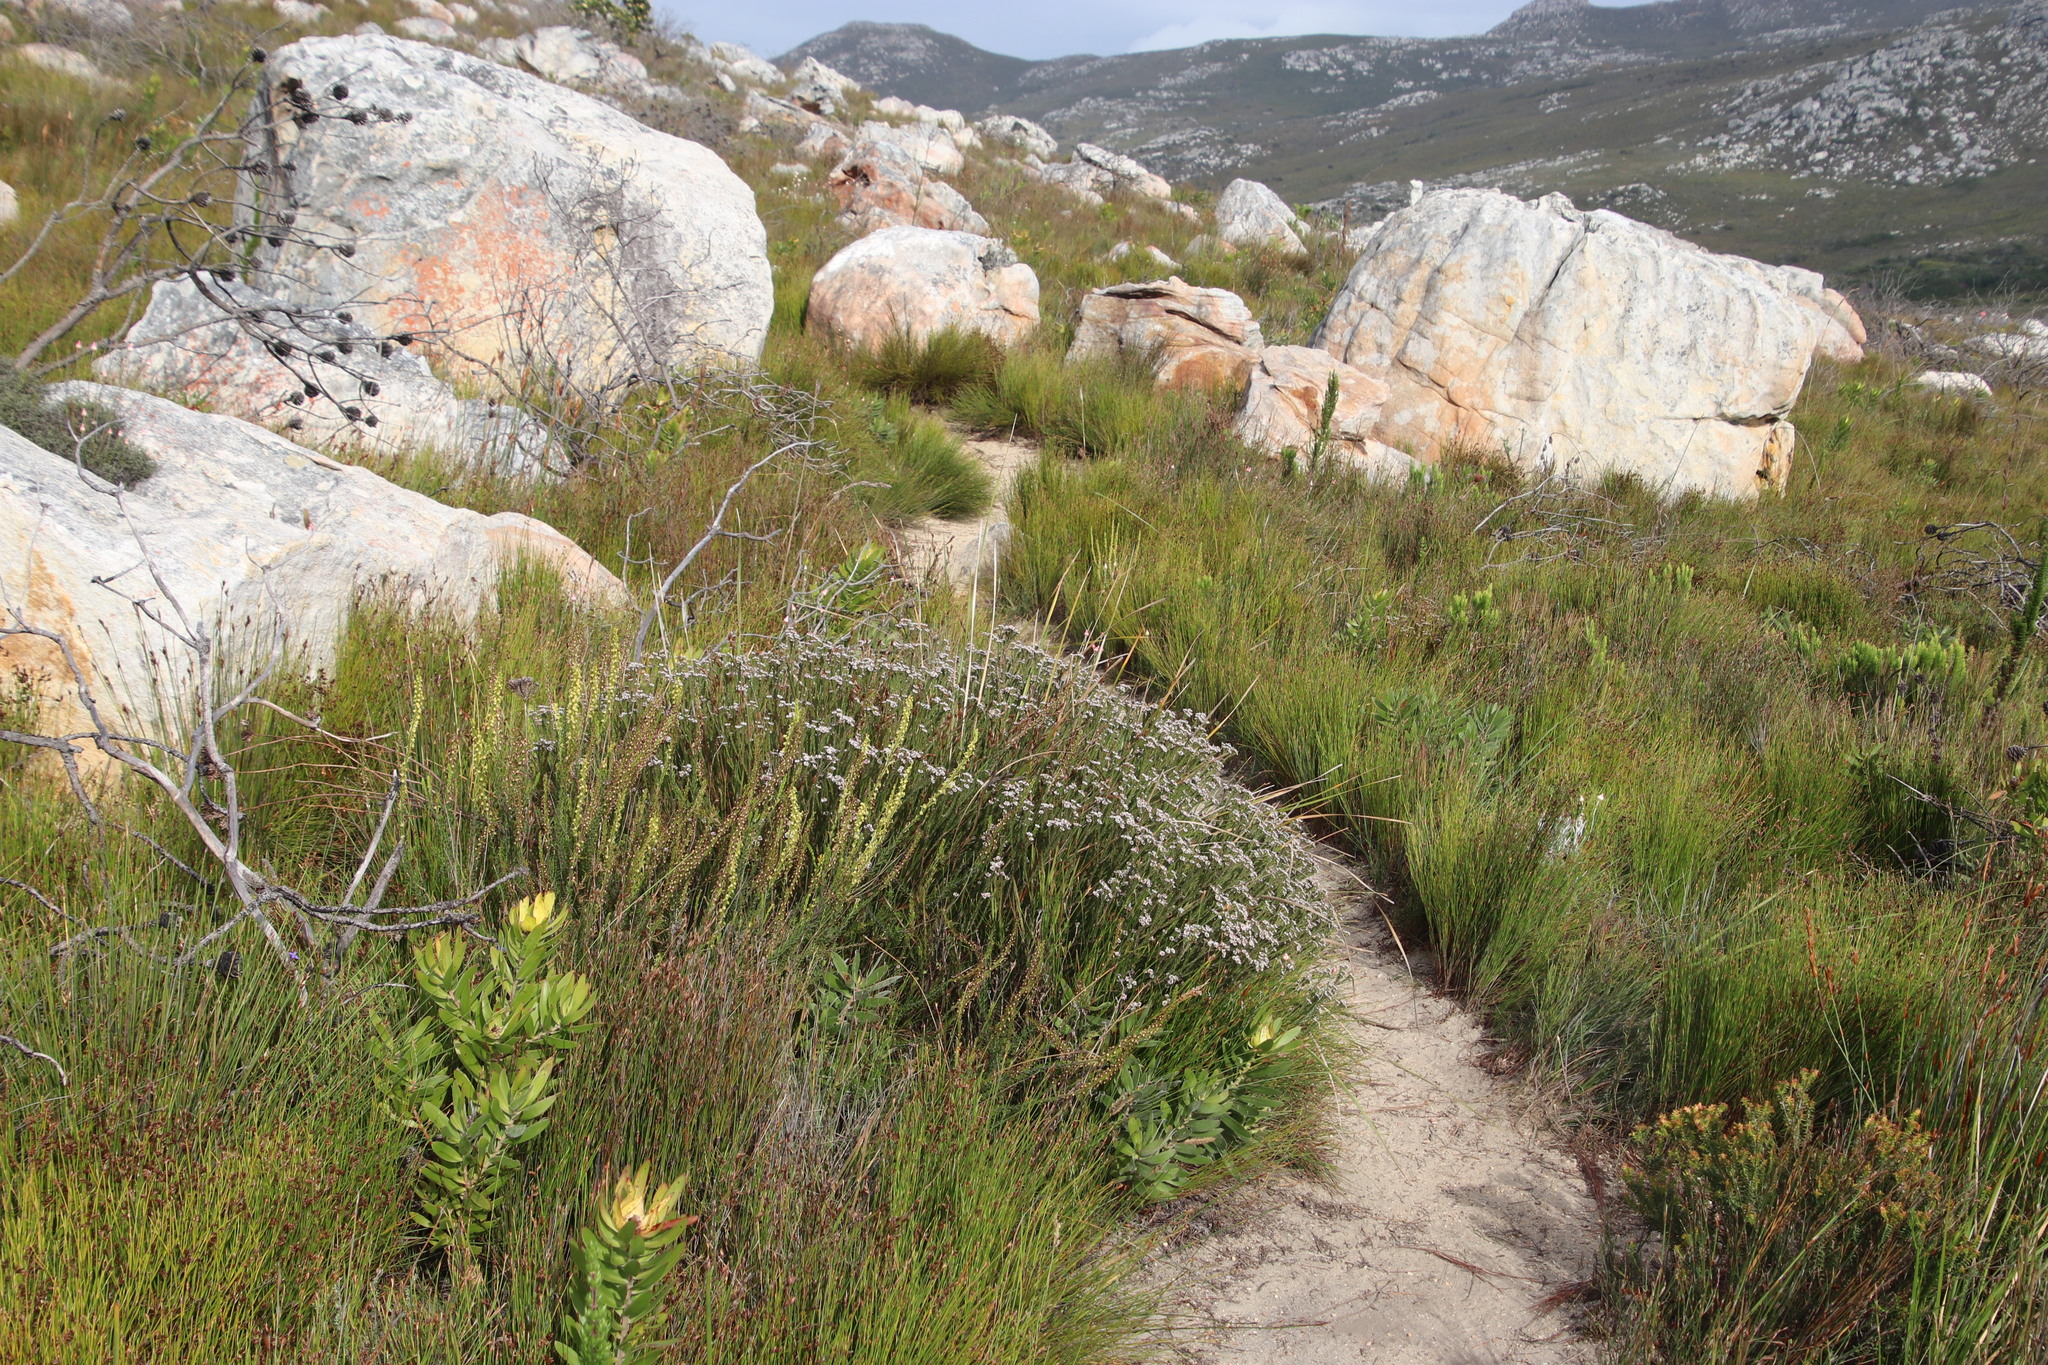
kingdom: Plantae
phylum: Tracheophyta
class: Magnoliopsida
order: Bruniales
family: Bruniaceae
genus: Staavia
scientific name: Staavia radiata
